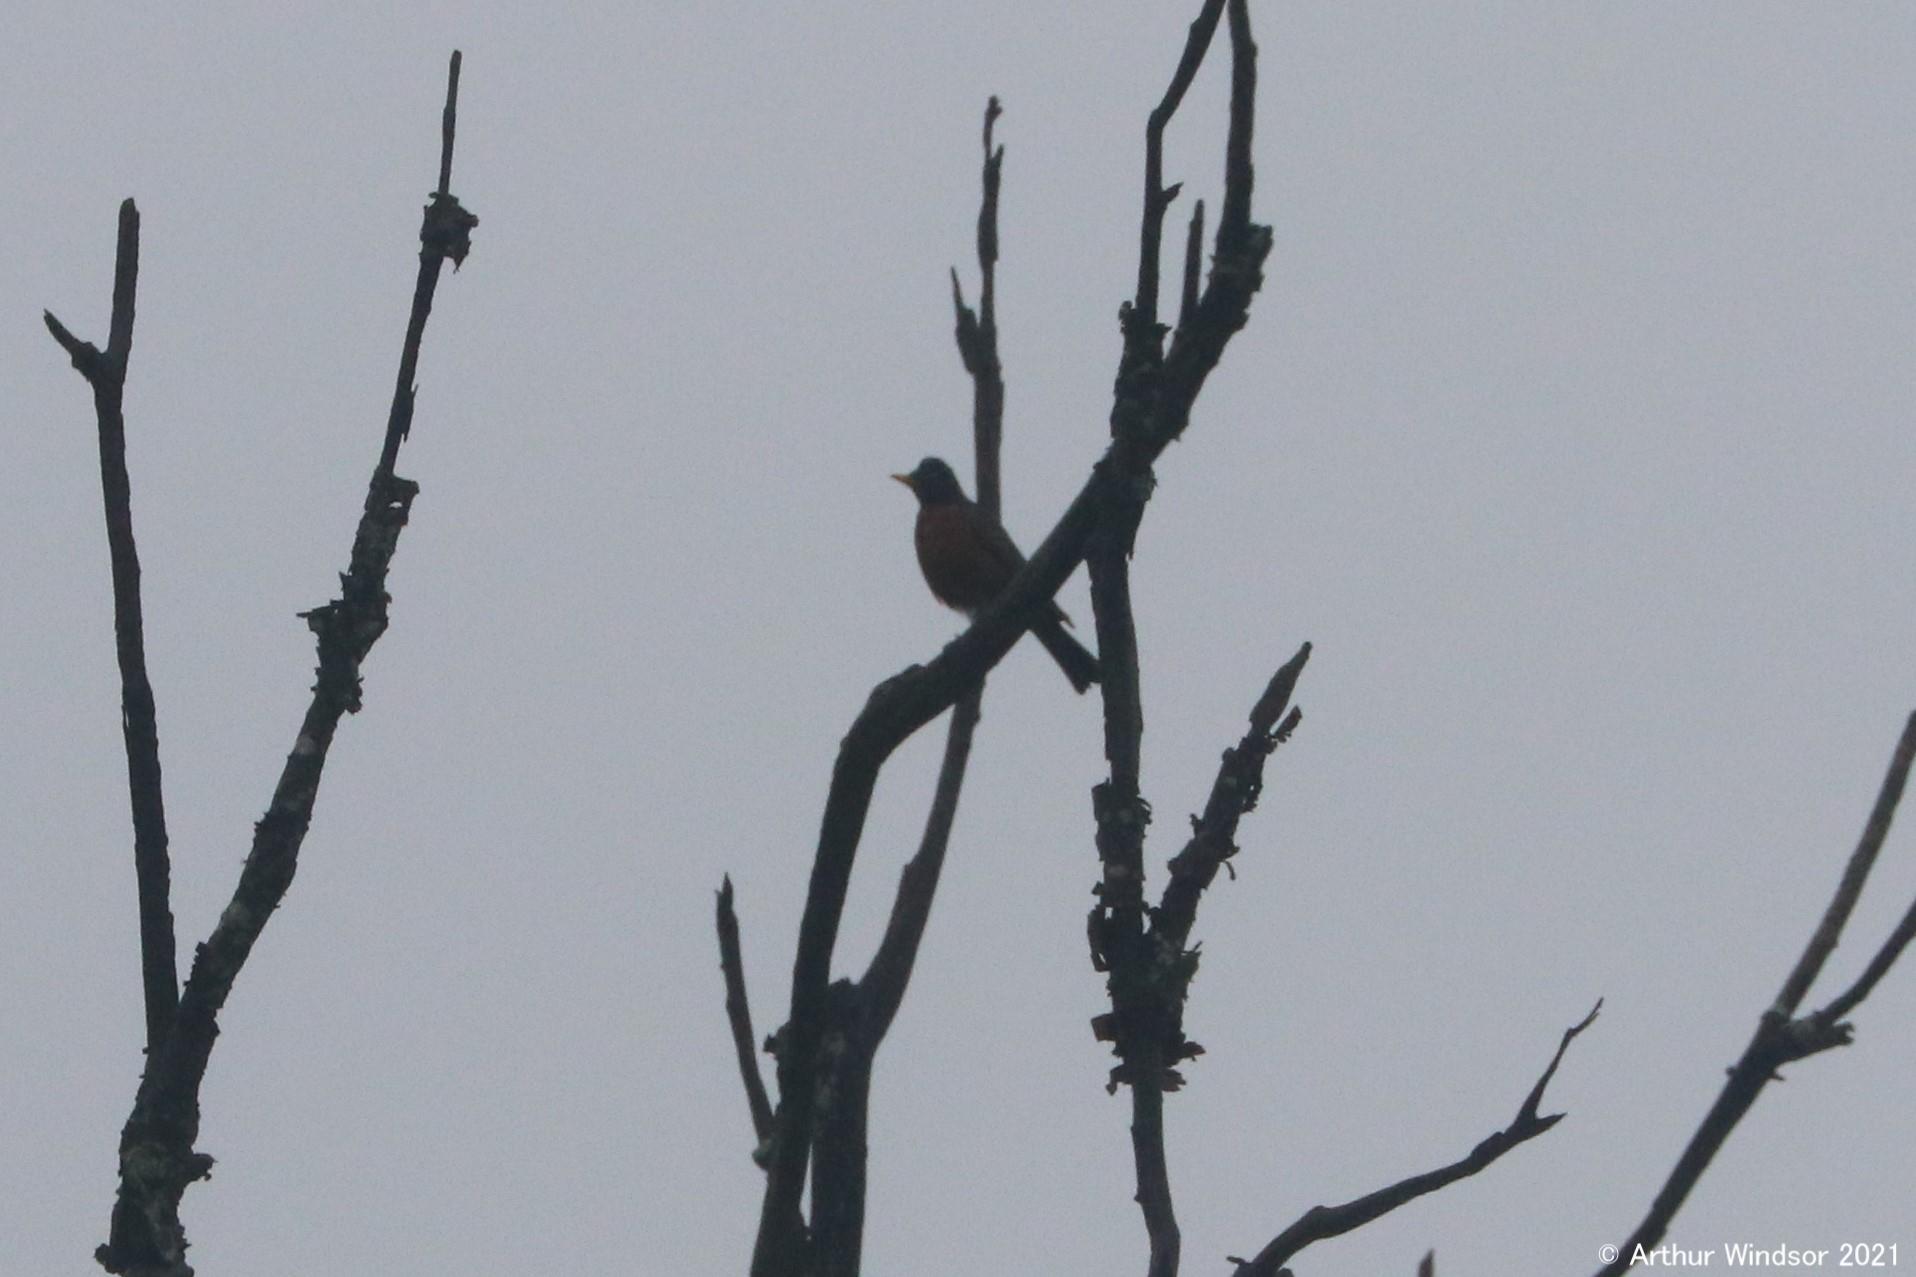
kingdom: Animalia
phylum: Chordata
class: Aves
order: Passeriformes
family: Turdidae
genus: Turdus
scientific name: Turdus migratorius
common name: American robin
